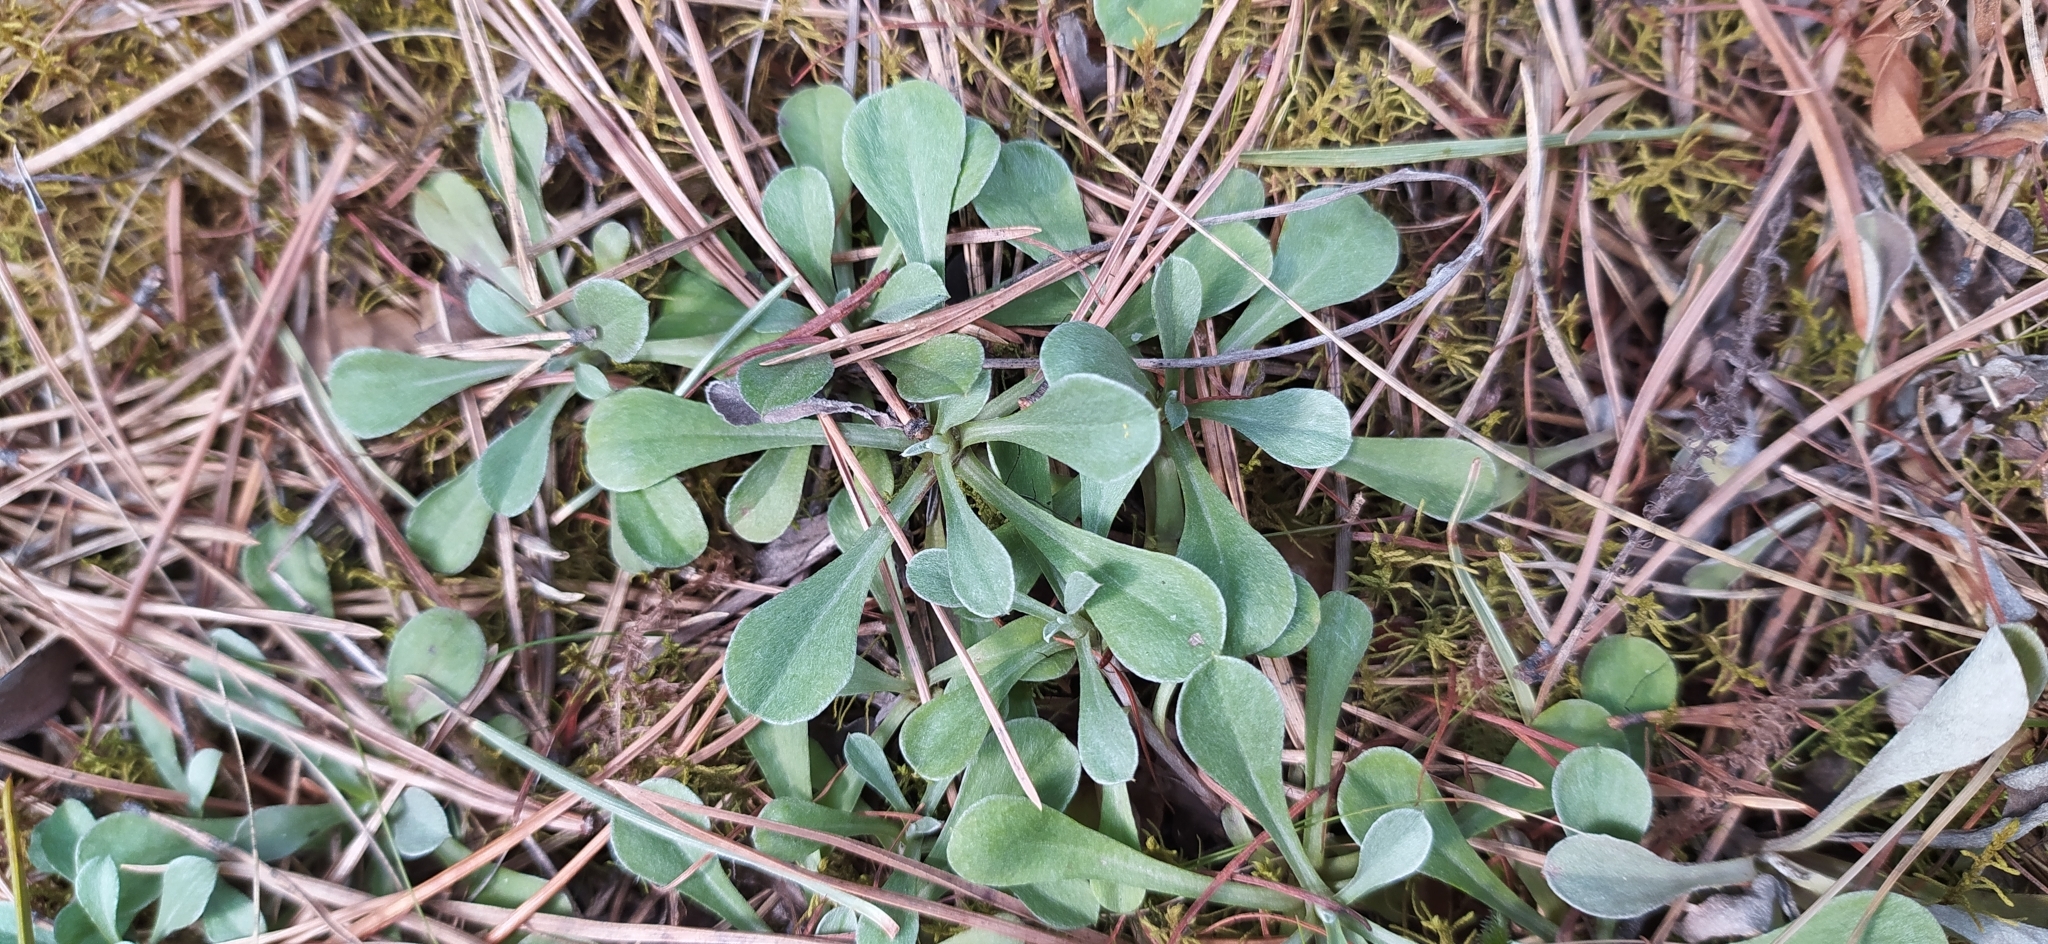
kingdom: Plantae
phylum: Tracheophyta
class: Magnoliopsida
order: Asterales
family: Asteraceae
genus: Antennaria
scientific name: Antennaria dioica
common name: Mountain everlasting
